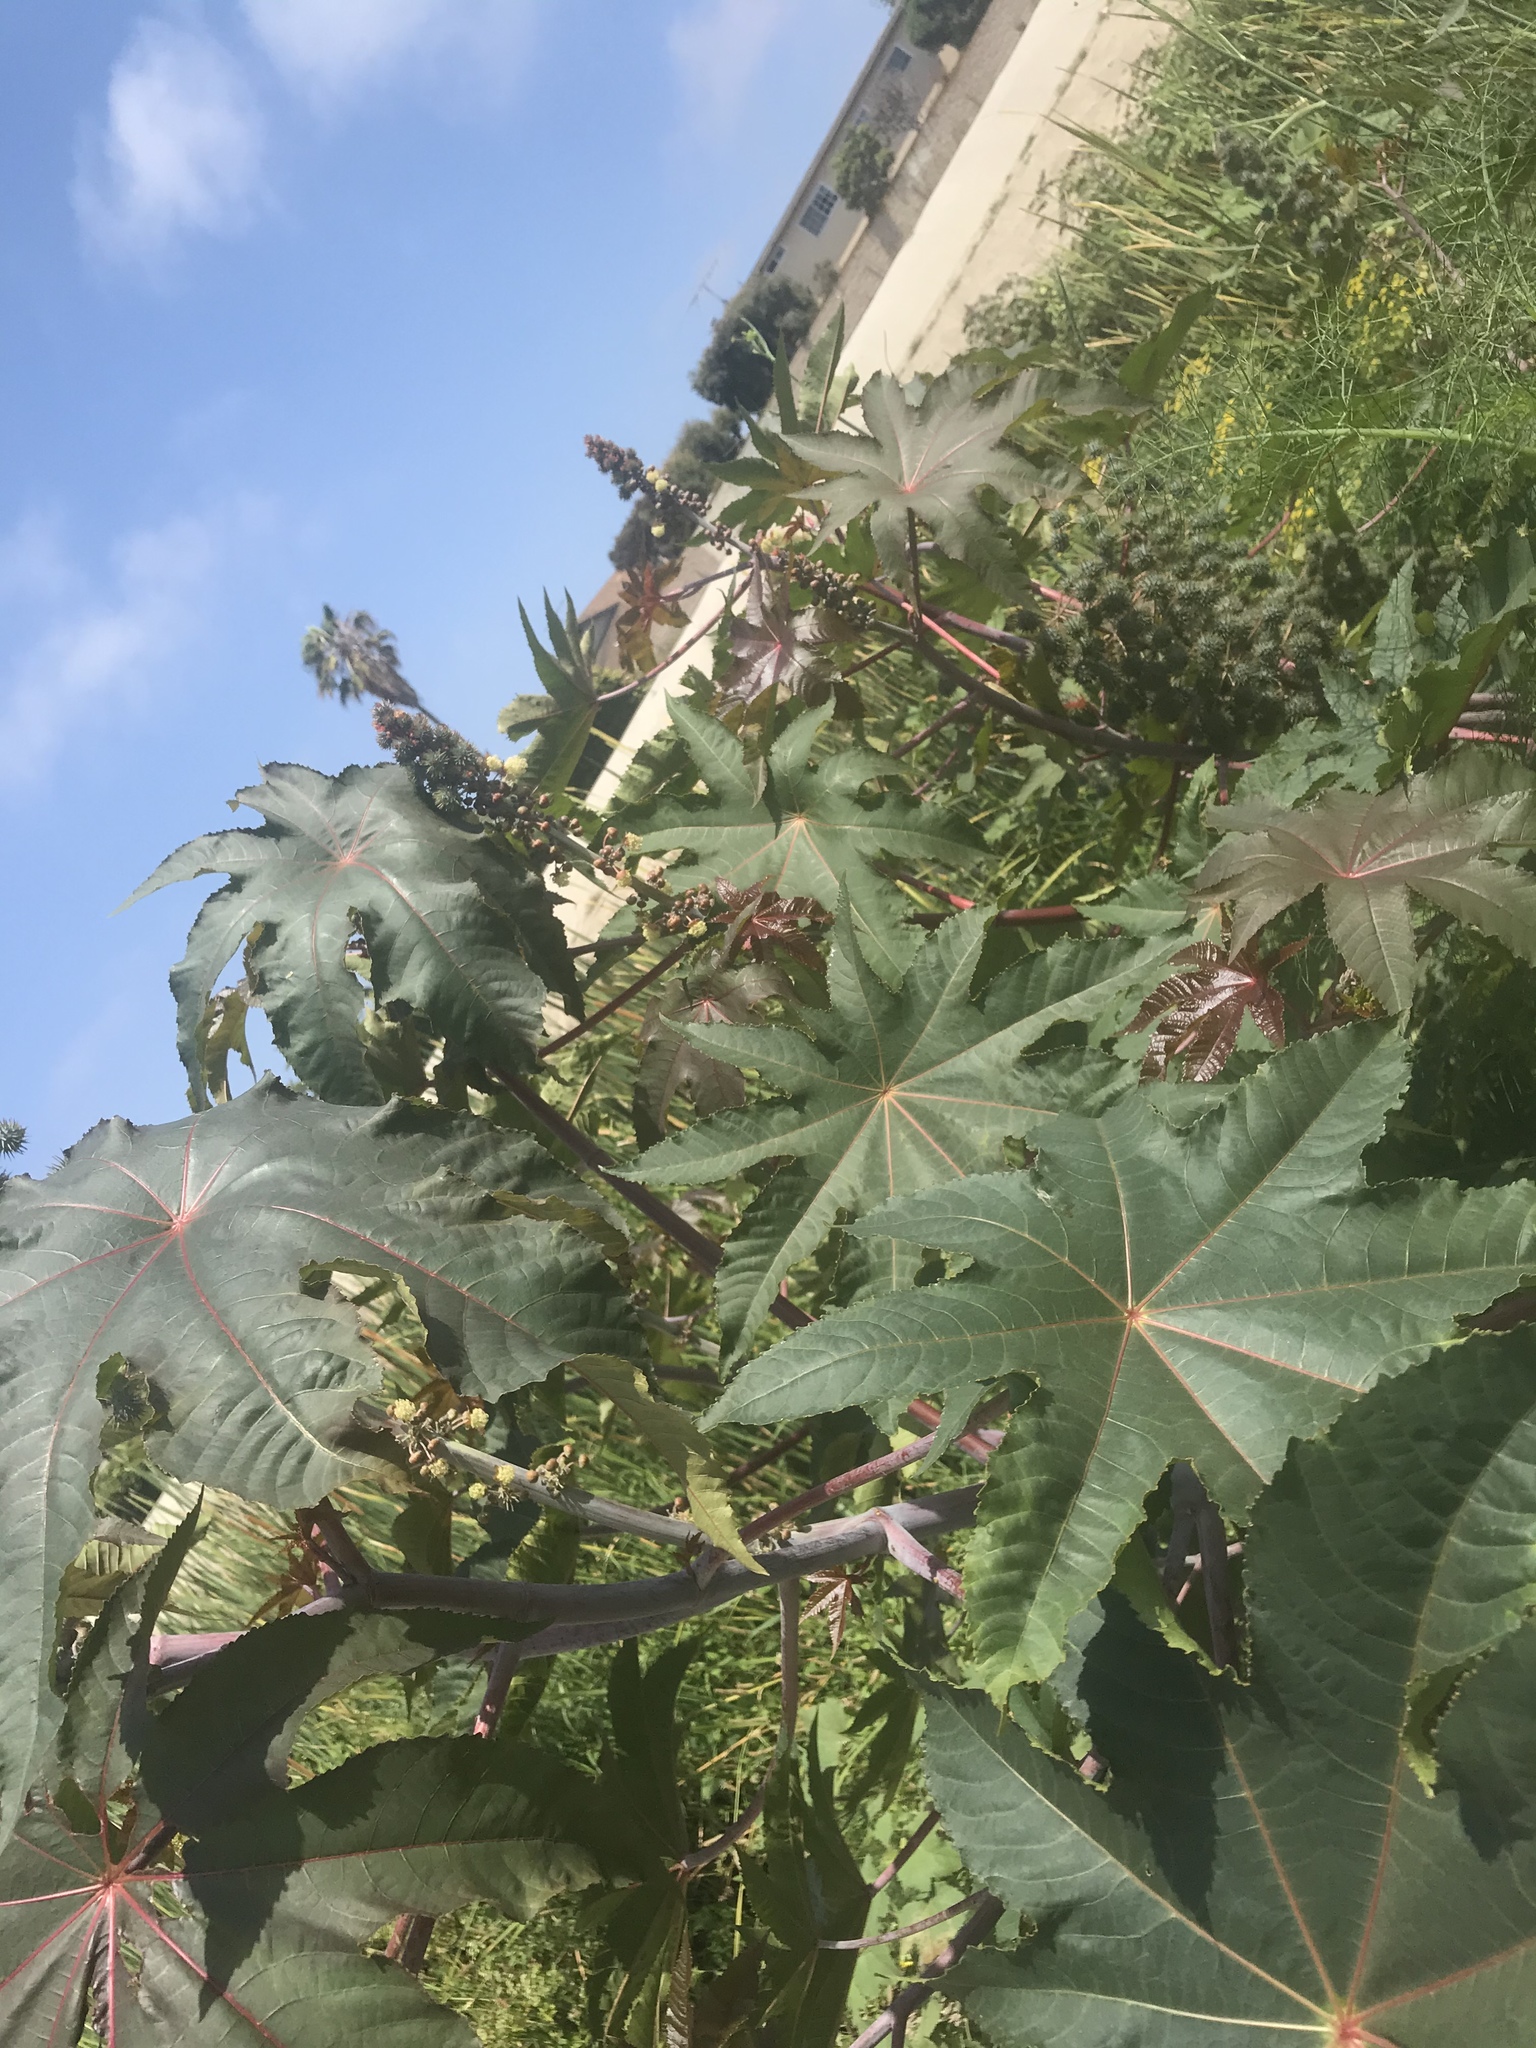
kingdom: Plantae
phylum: Tracheophyta
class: Magnoliopsida
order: Malpighiales
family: Euphorbiaceae
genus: Ricinus
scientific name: Ricinus communis
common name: Castor-oil-plant
